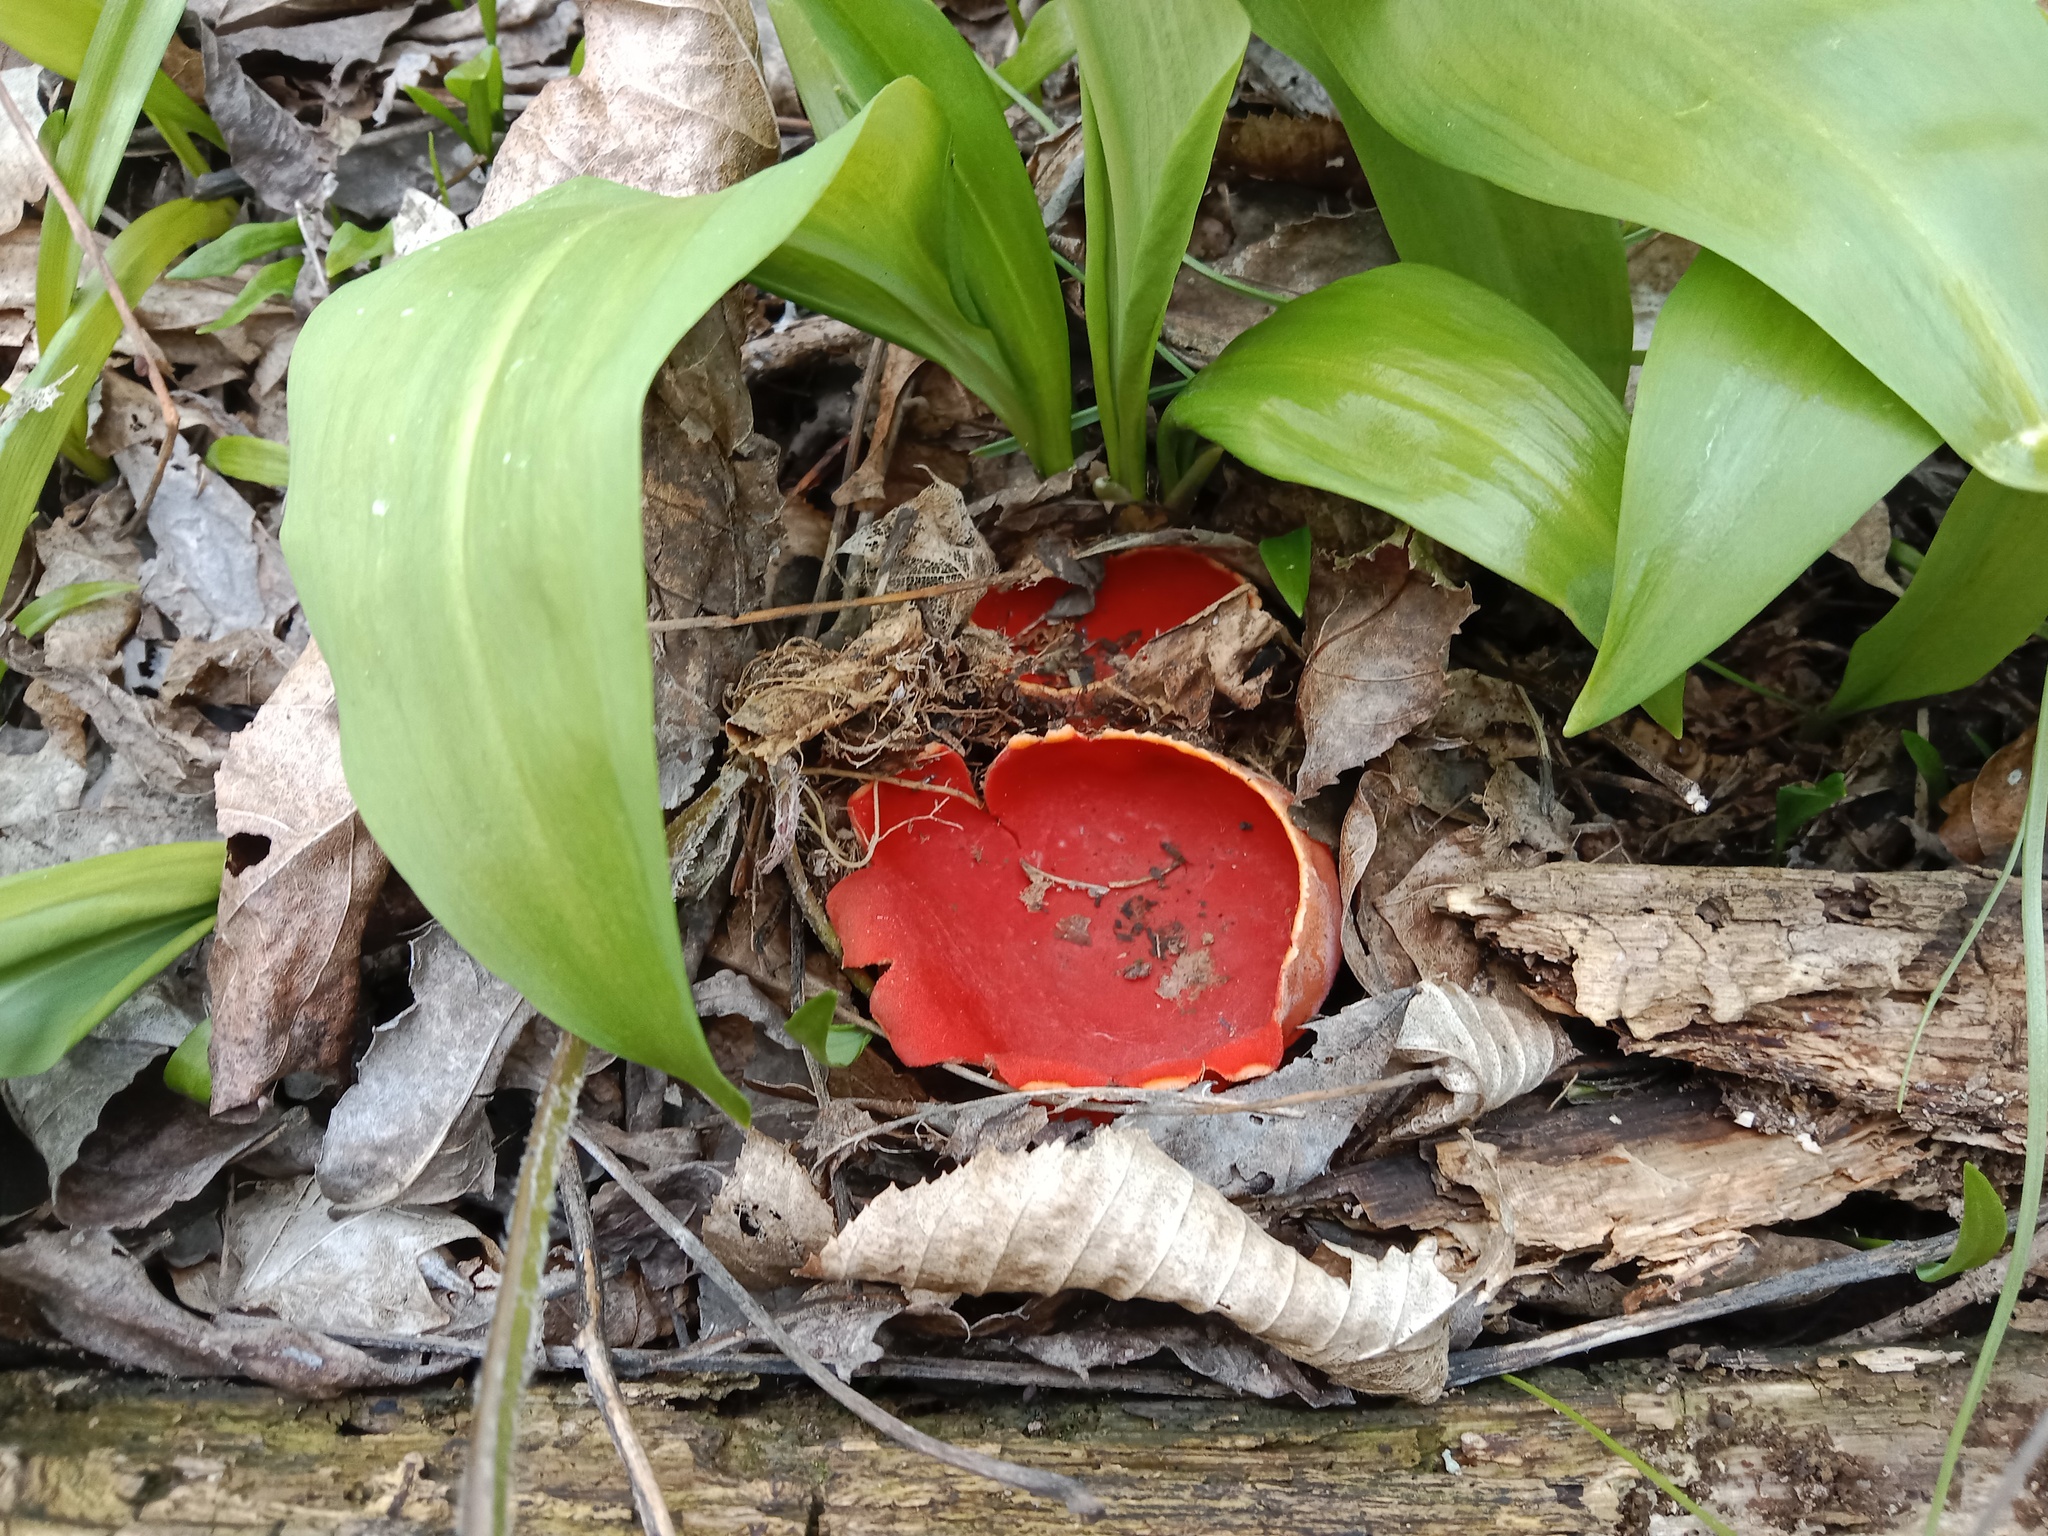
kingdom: Fungi
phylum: Ascomycota
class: Pezizomycetes
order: Pezizales
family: Sarcoscyphaceae
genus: Sarcoscypha
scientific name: Sarcoscypha
